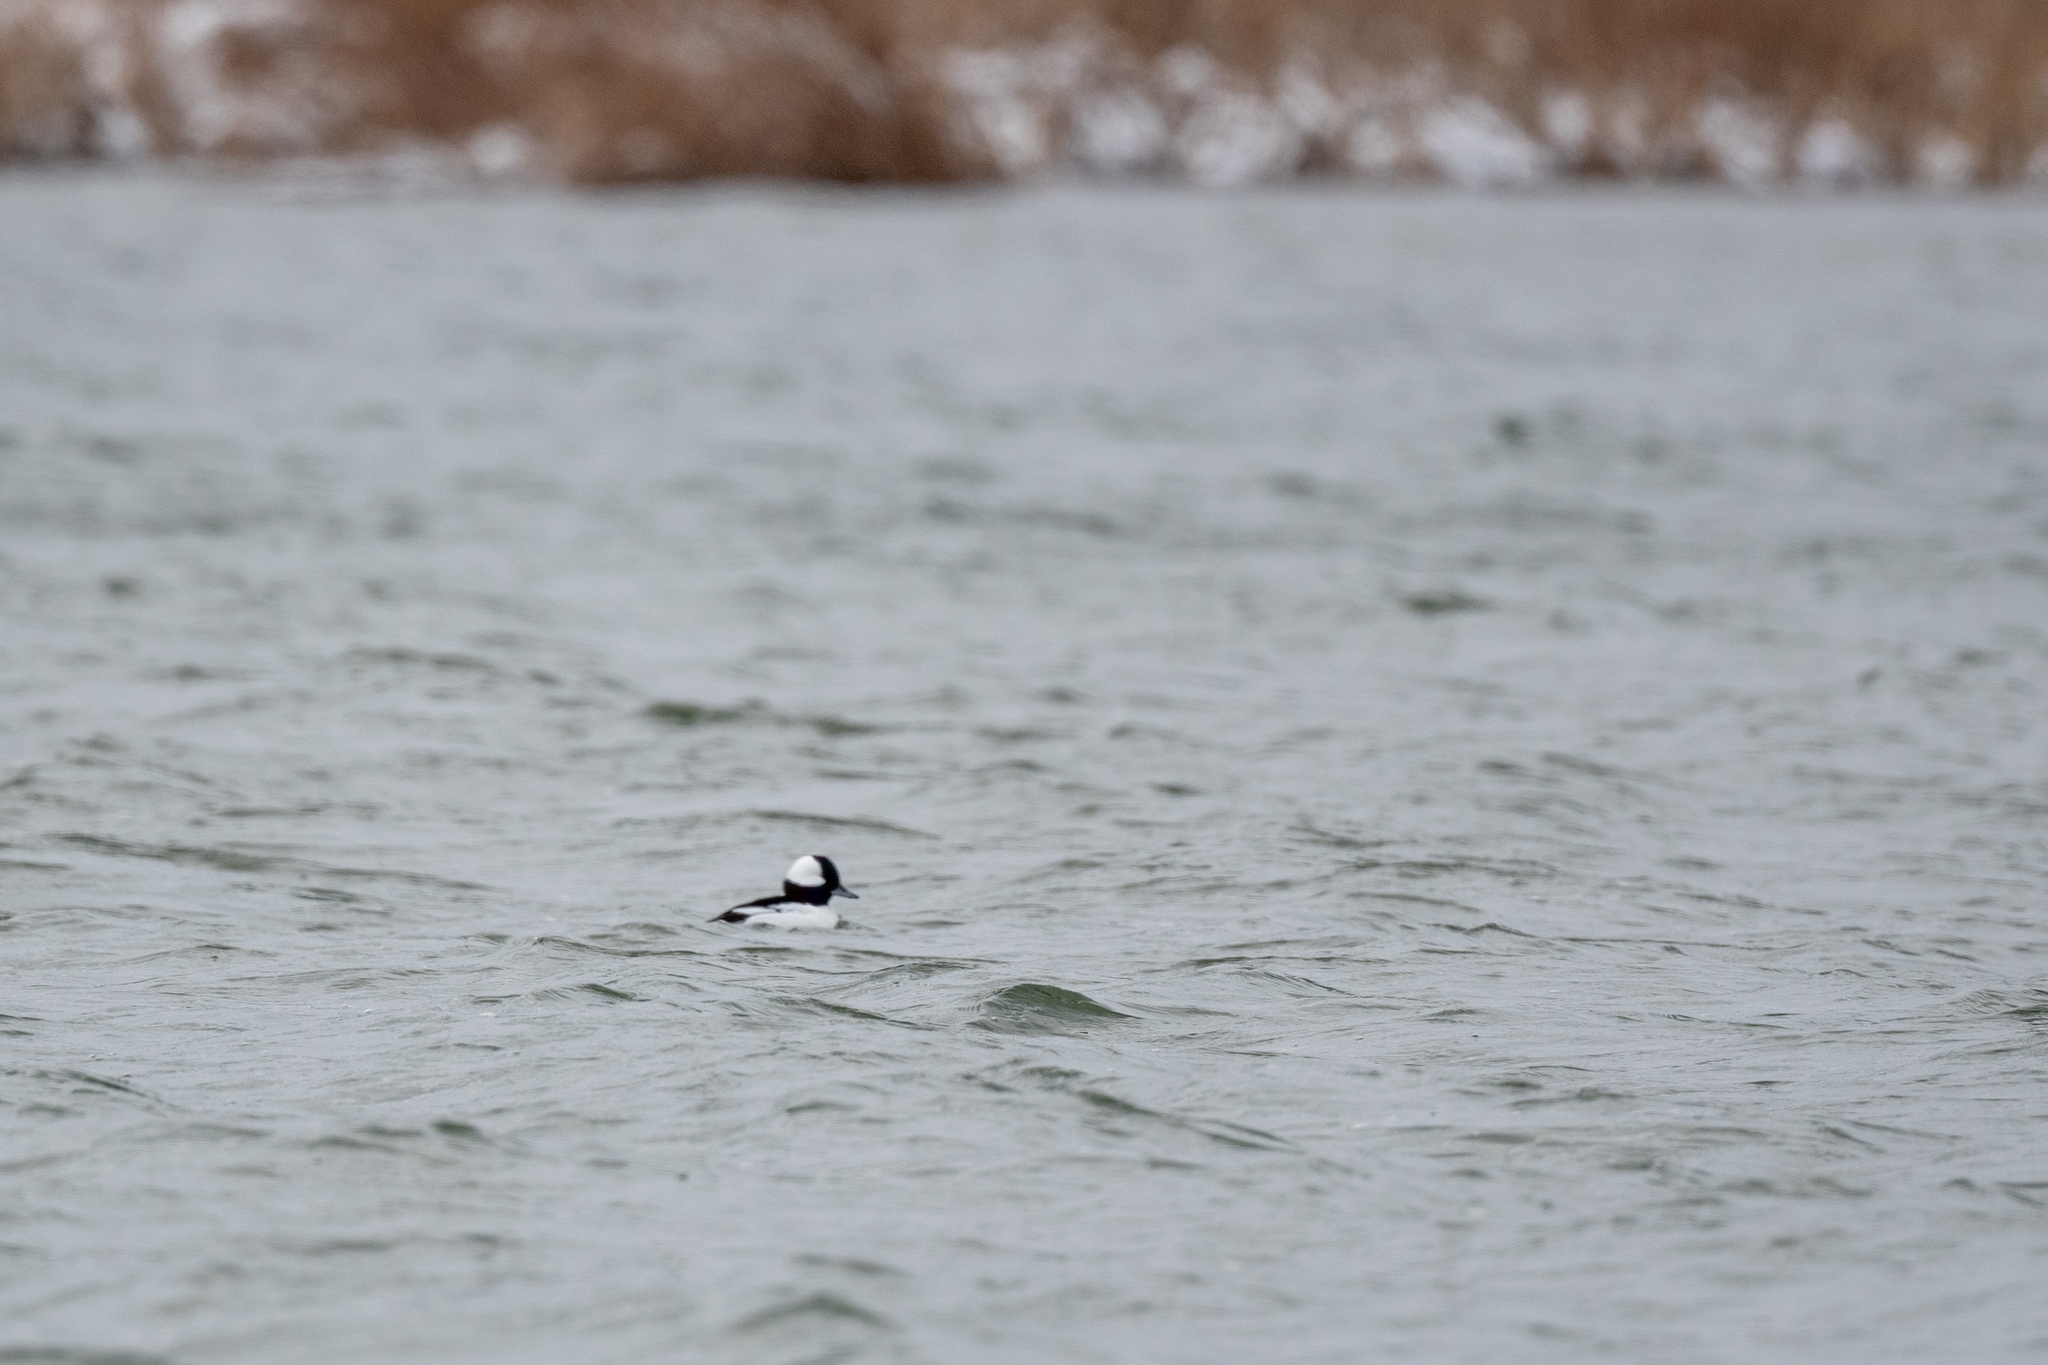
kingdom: Animalia
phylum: Chordata
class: Aves
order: Anseriformes
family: Anatidae
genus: Bucephala
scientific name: Bucephala albeola
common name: Bufflehead
